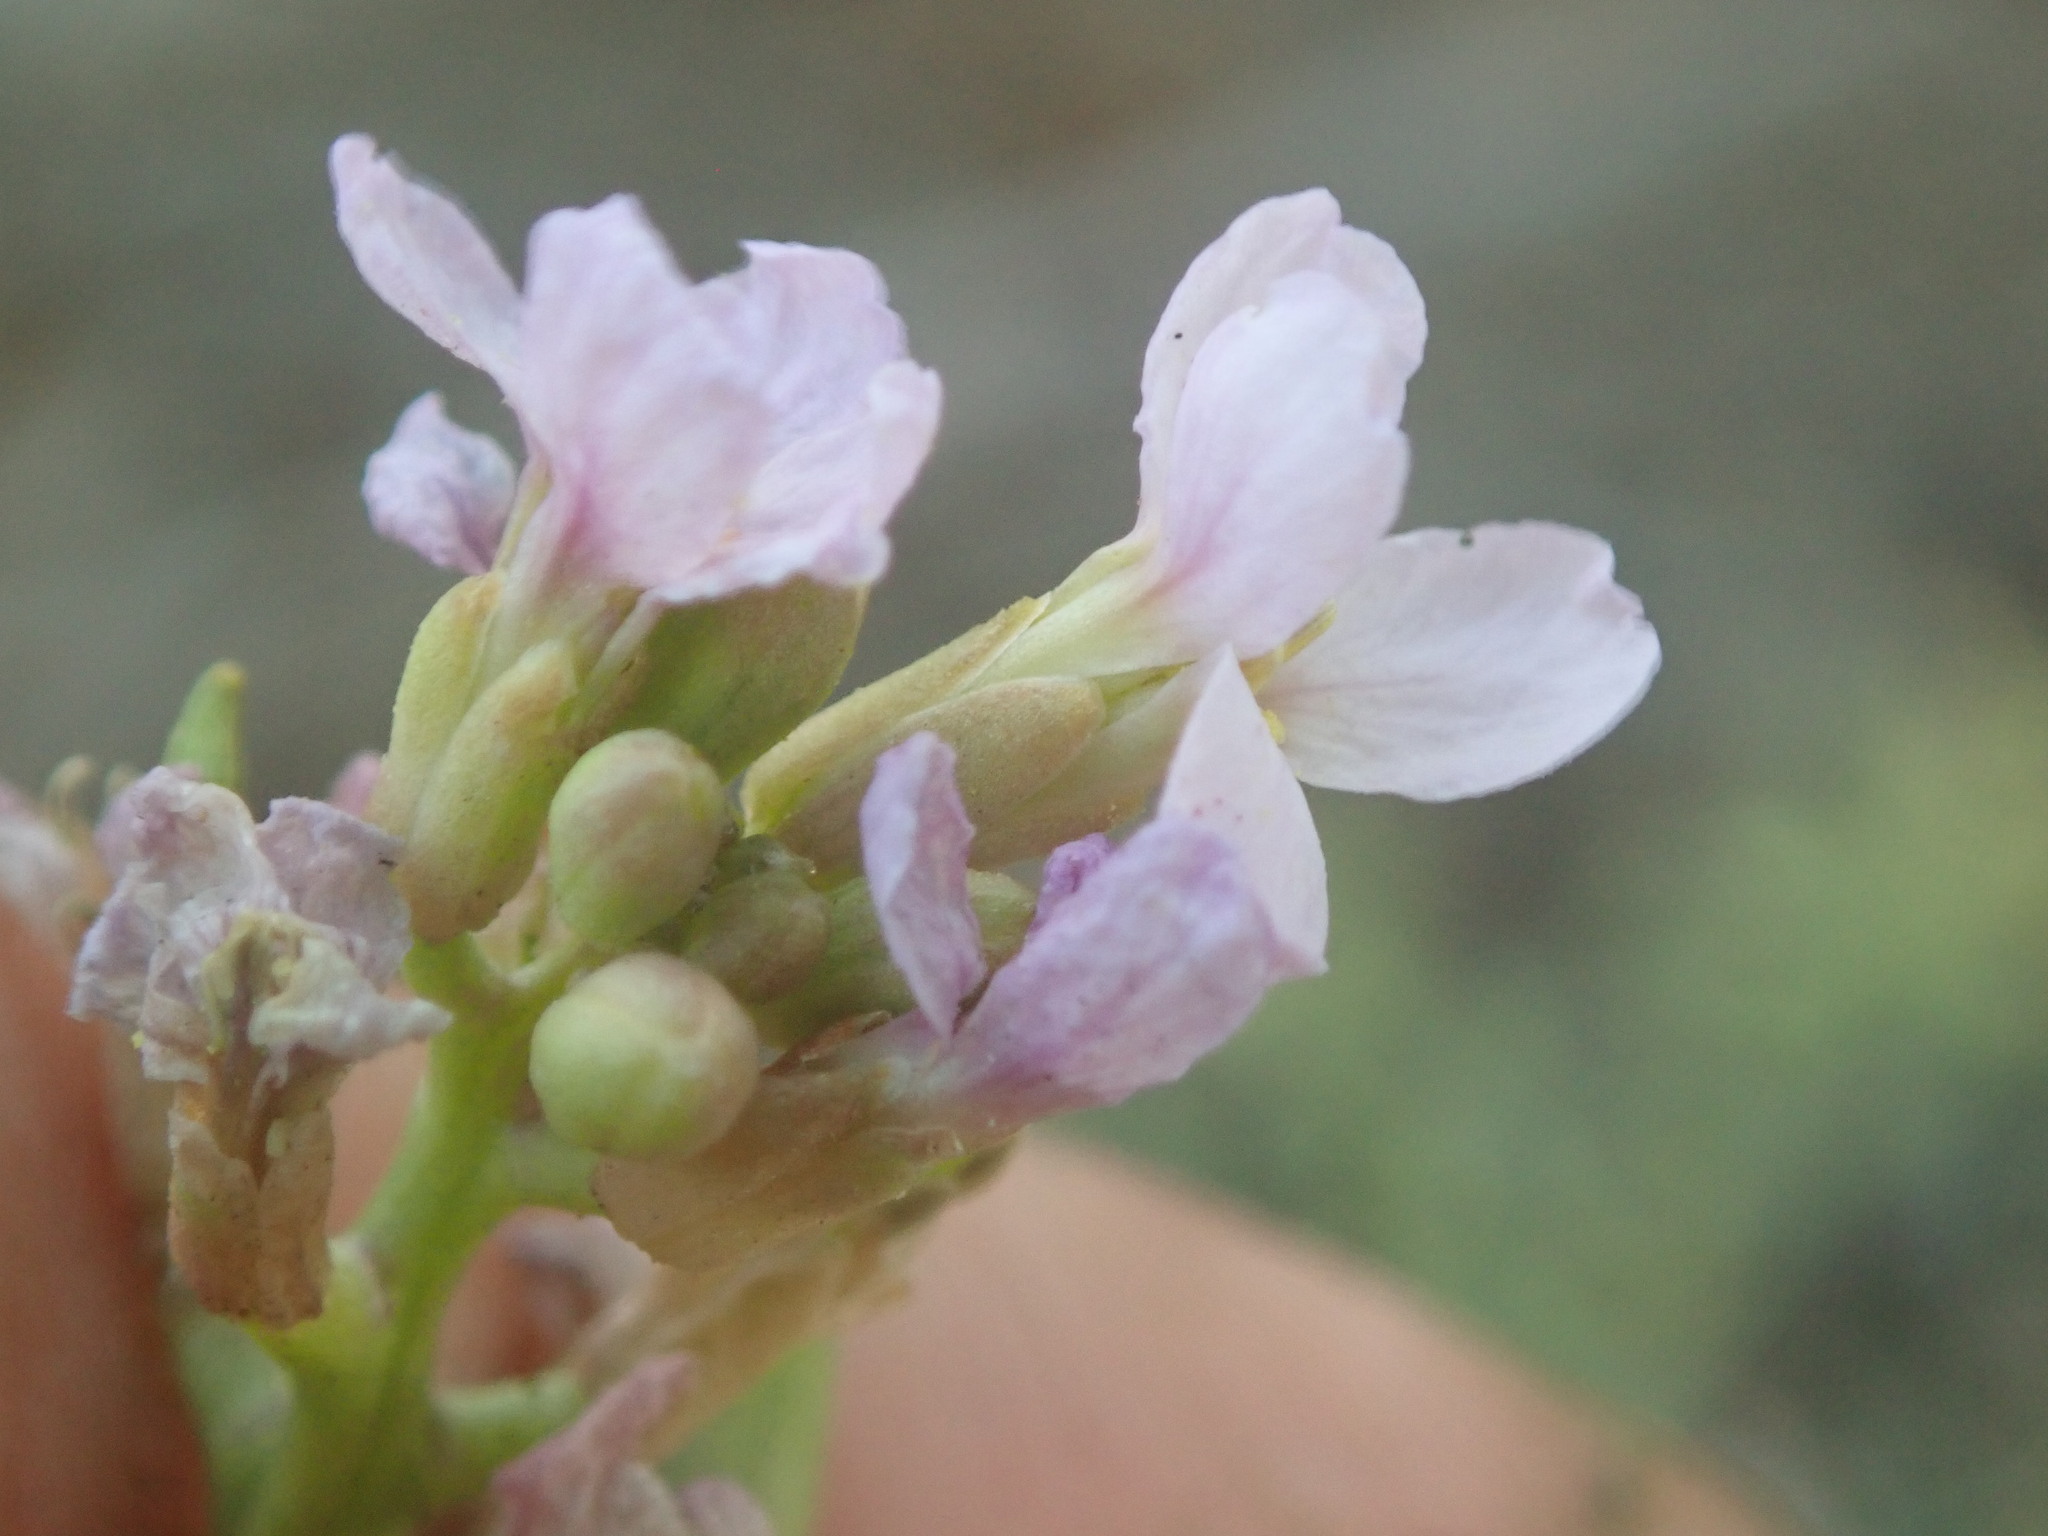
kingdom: Plantae
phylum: Tracheophyta
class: Magnoliopsida
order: Brassicales
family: Brassicaceae
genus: Cakile
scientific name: Cakile maritima
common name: Sea rocket
